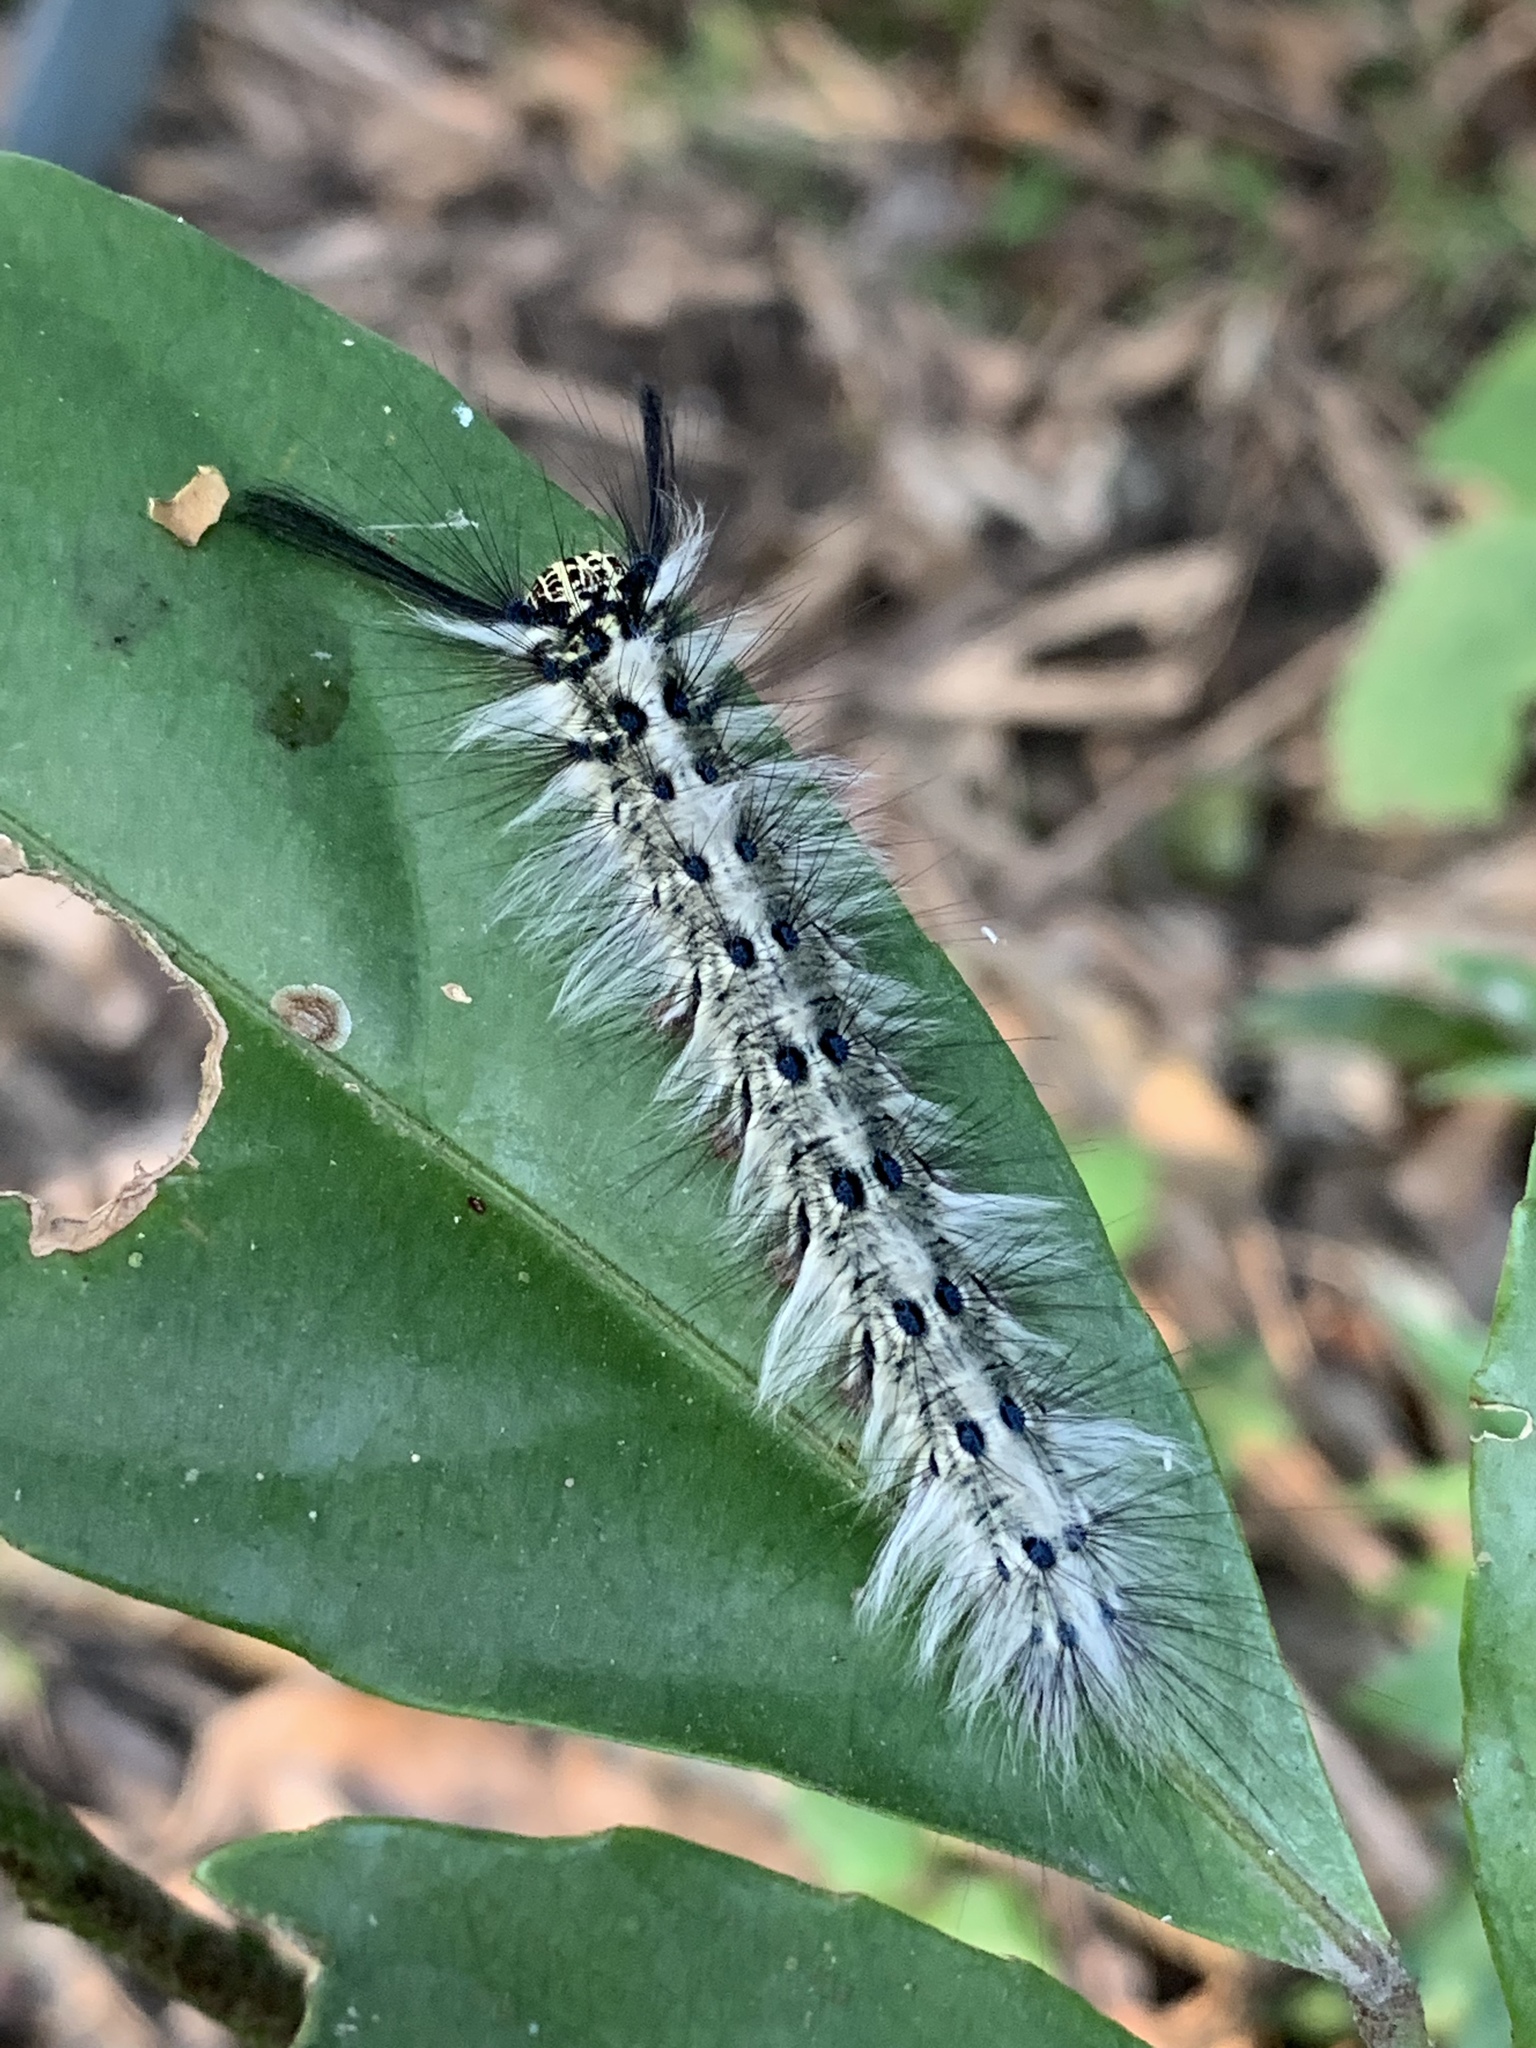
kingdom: Animalia
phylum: Arthropoda
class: Insecta
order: Lepidoptera
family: Lasiocampidae
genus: Trabala
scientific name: Trabala vishnou
